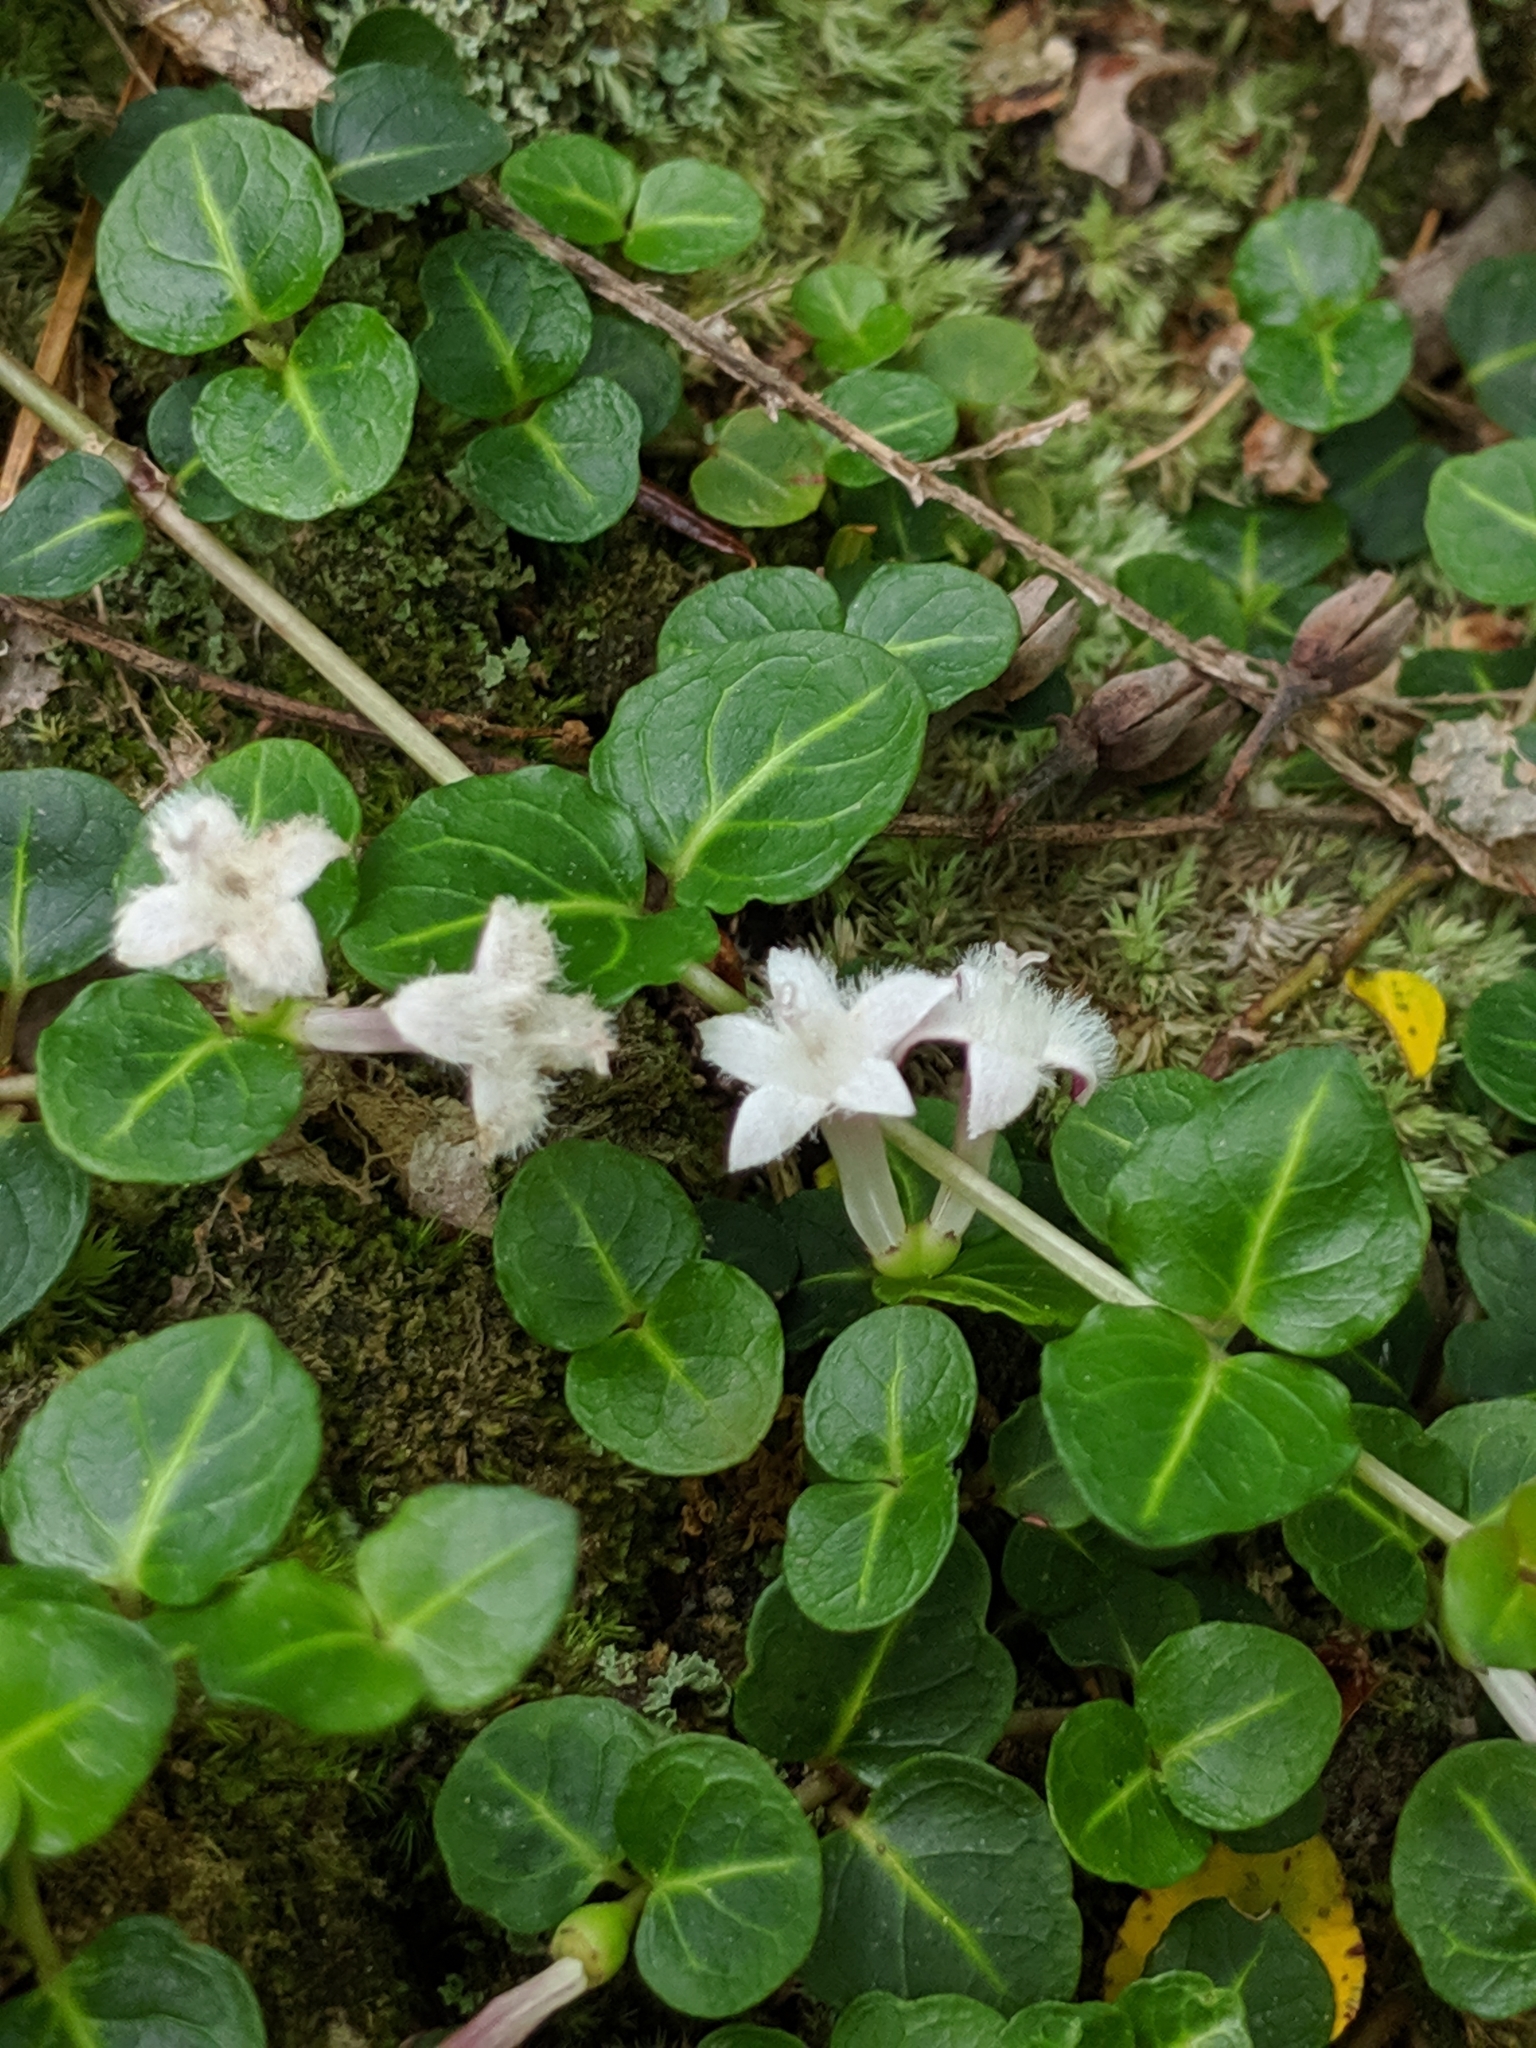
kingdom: Plantae
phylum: Tracheophyta
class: Magnoliopsida
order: Gentianales
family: Rubiaceae
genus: Mitchella
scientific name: Mitchella repens
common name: Partridge-berry
